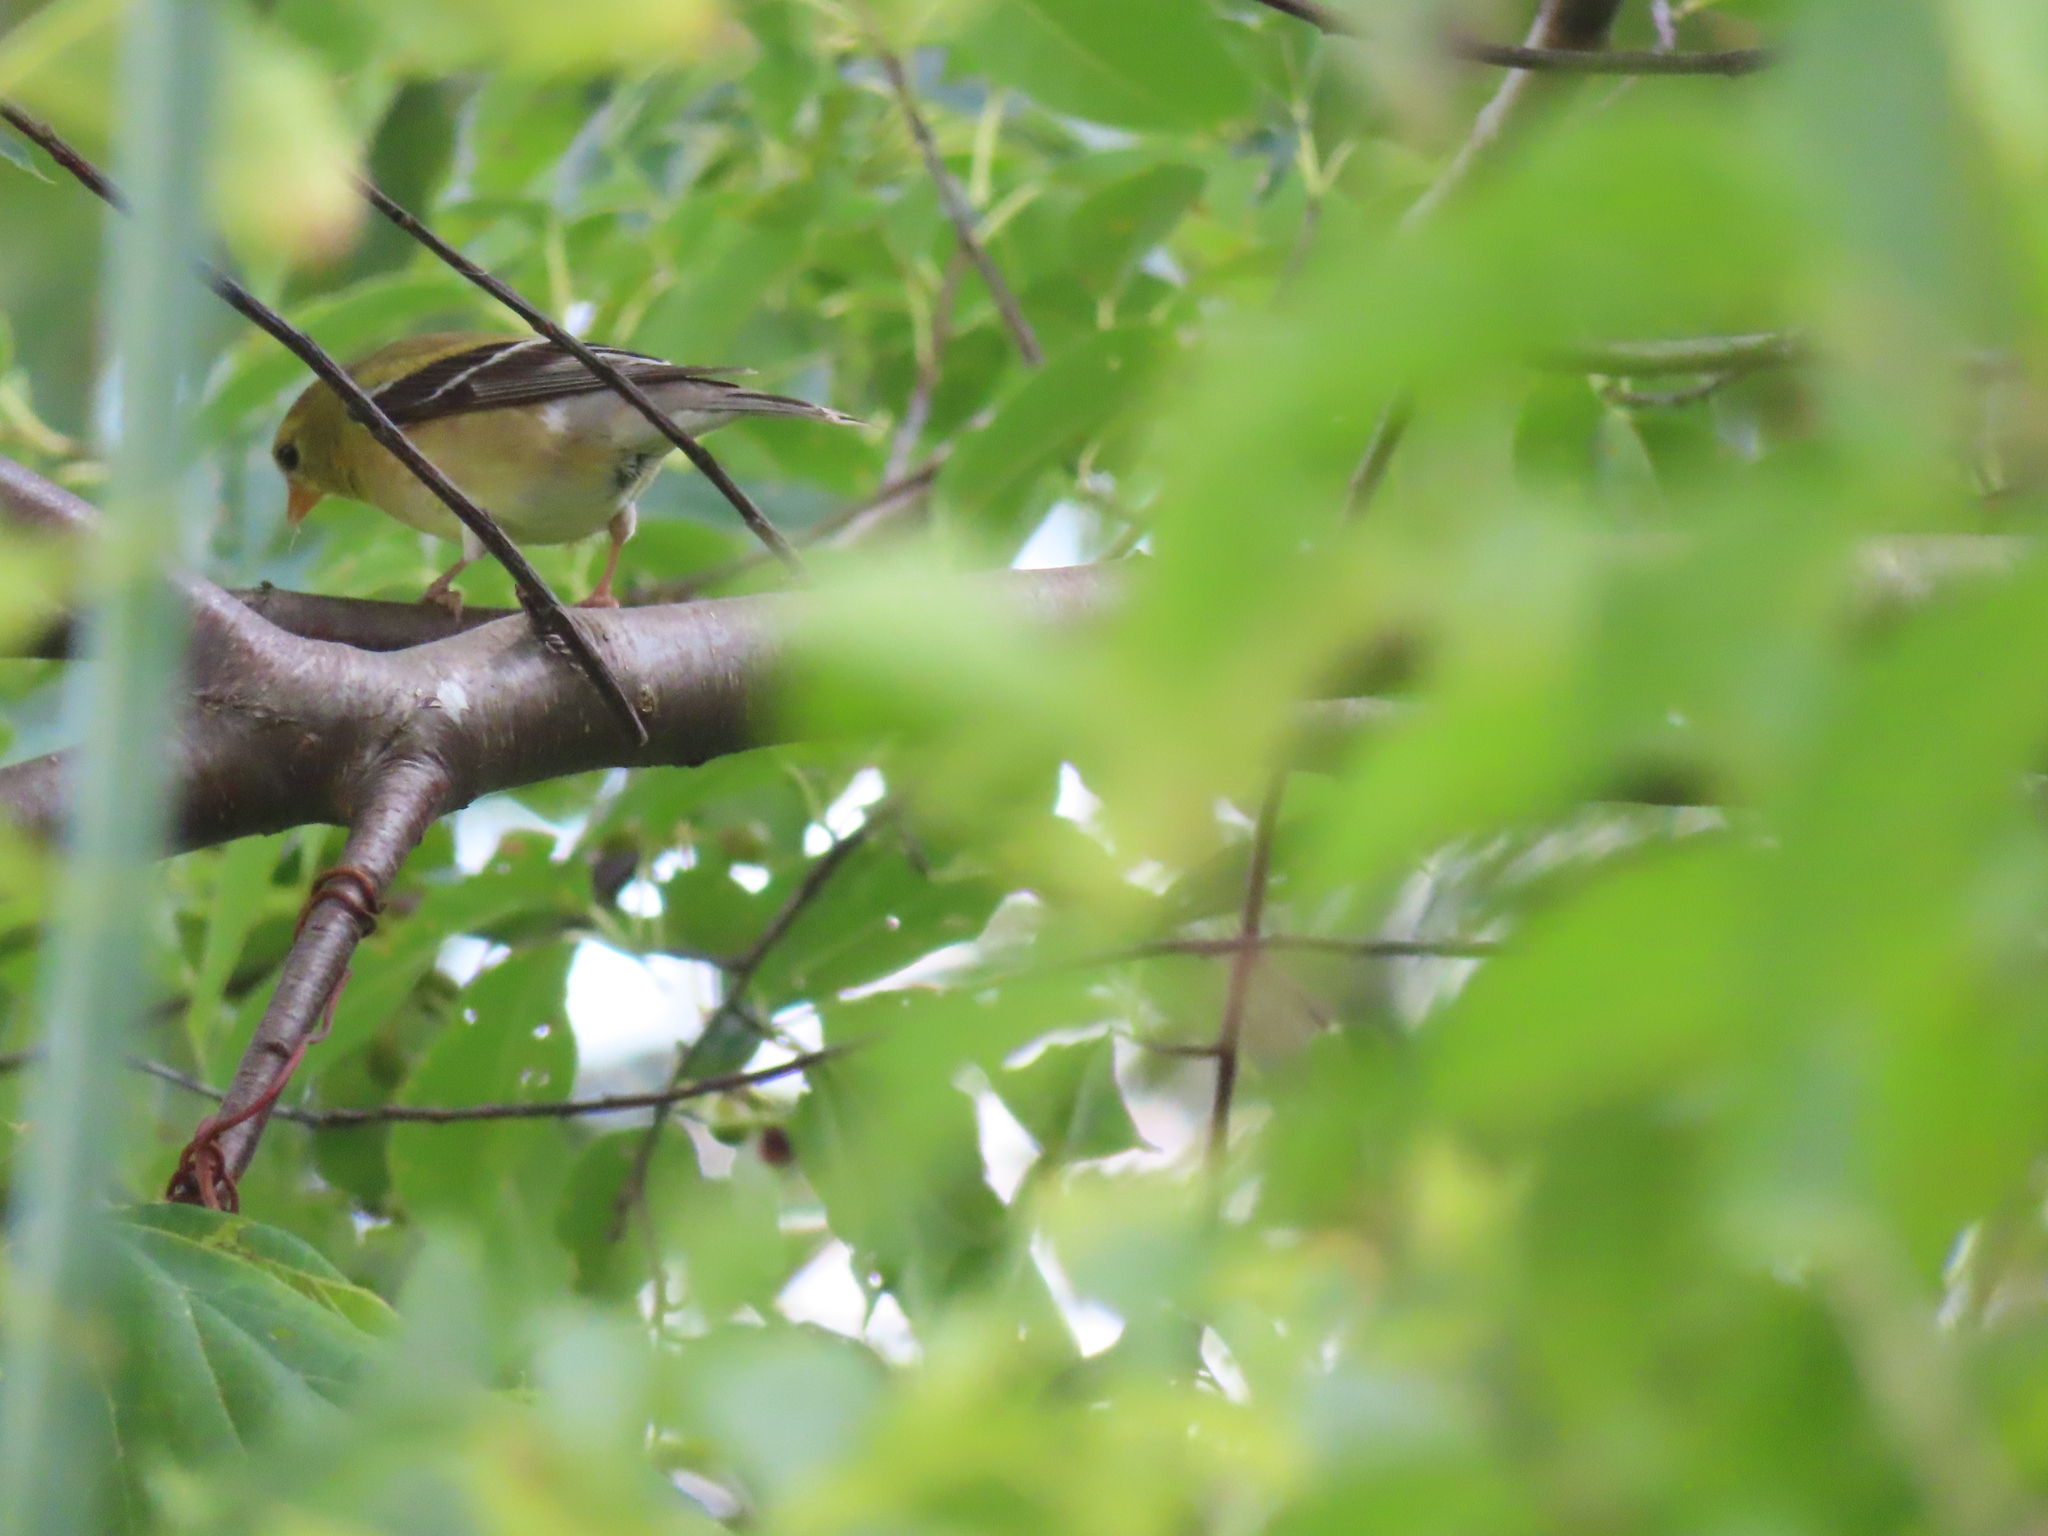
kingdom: Animalia
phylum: Chordata
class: Aves
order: Passeriformes
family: Fringillidae
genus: Spinus
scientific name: Spinus tristis
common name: American goldfinch
